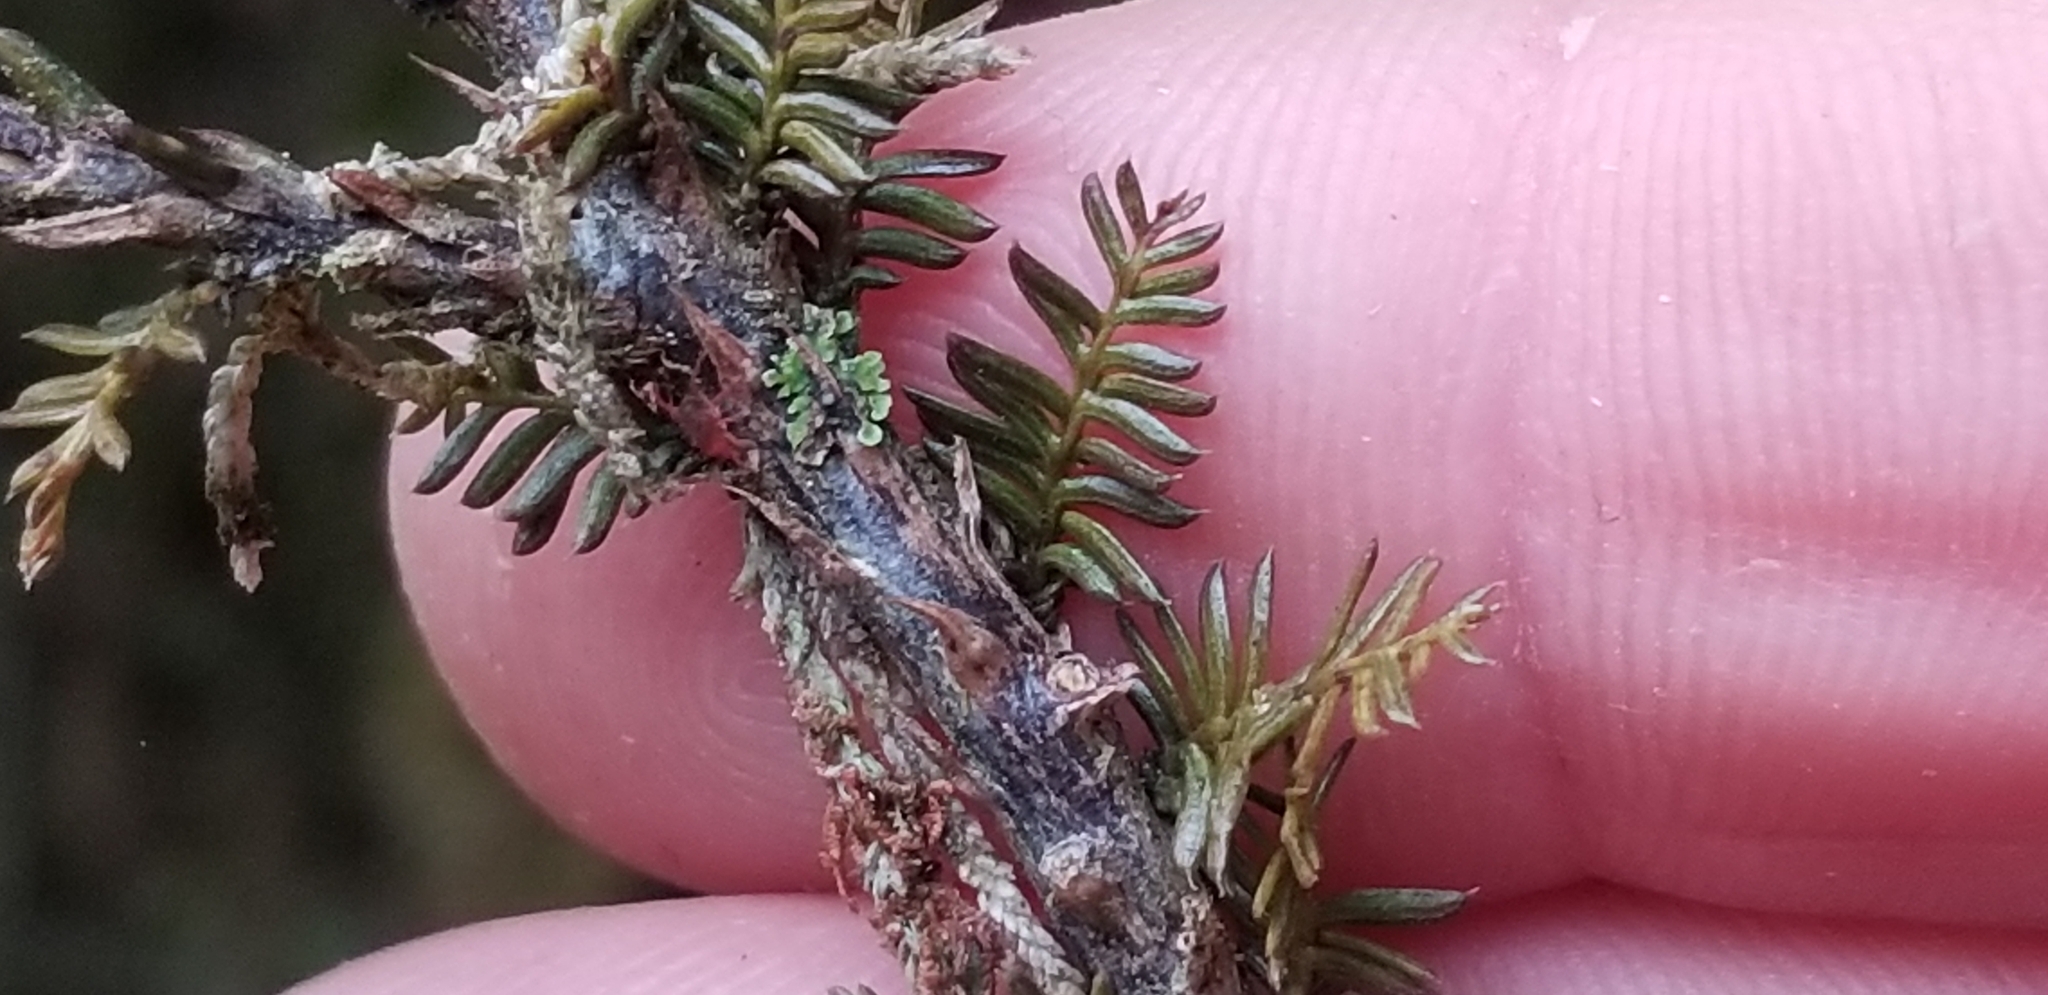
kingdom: Plantae
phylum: Tracheophyta
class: Pinopsida
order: Pinales
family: Podocarpaceae
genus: Dacrycarpus
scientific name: Dacrycarpus dacrydioides
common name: White pine
